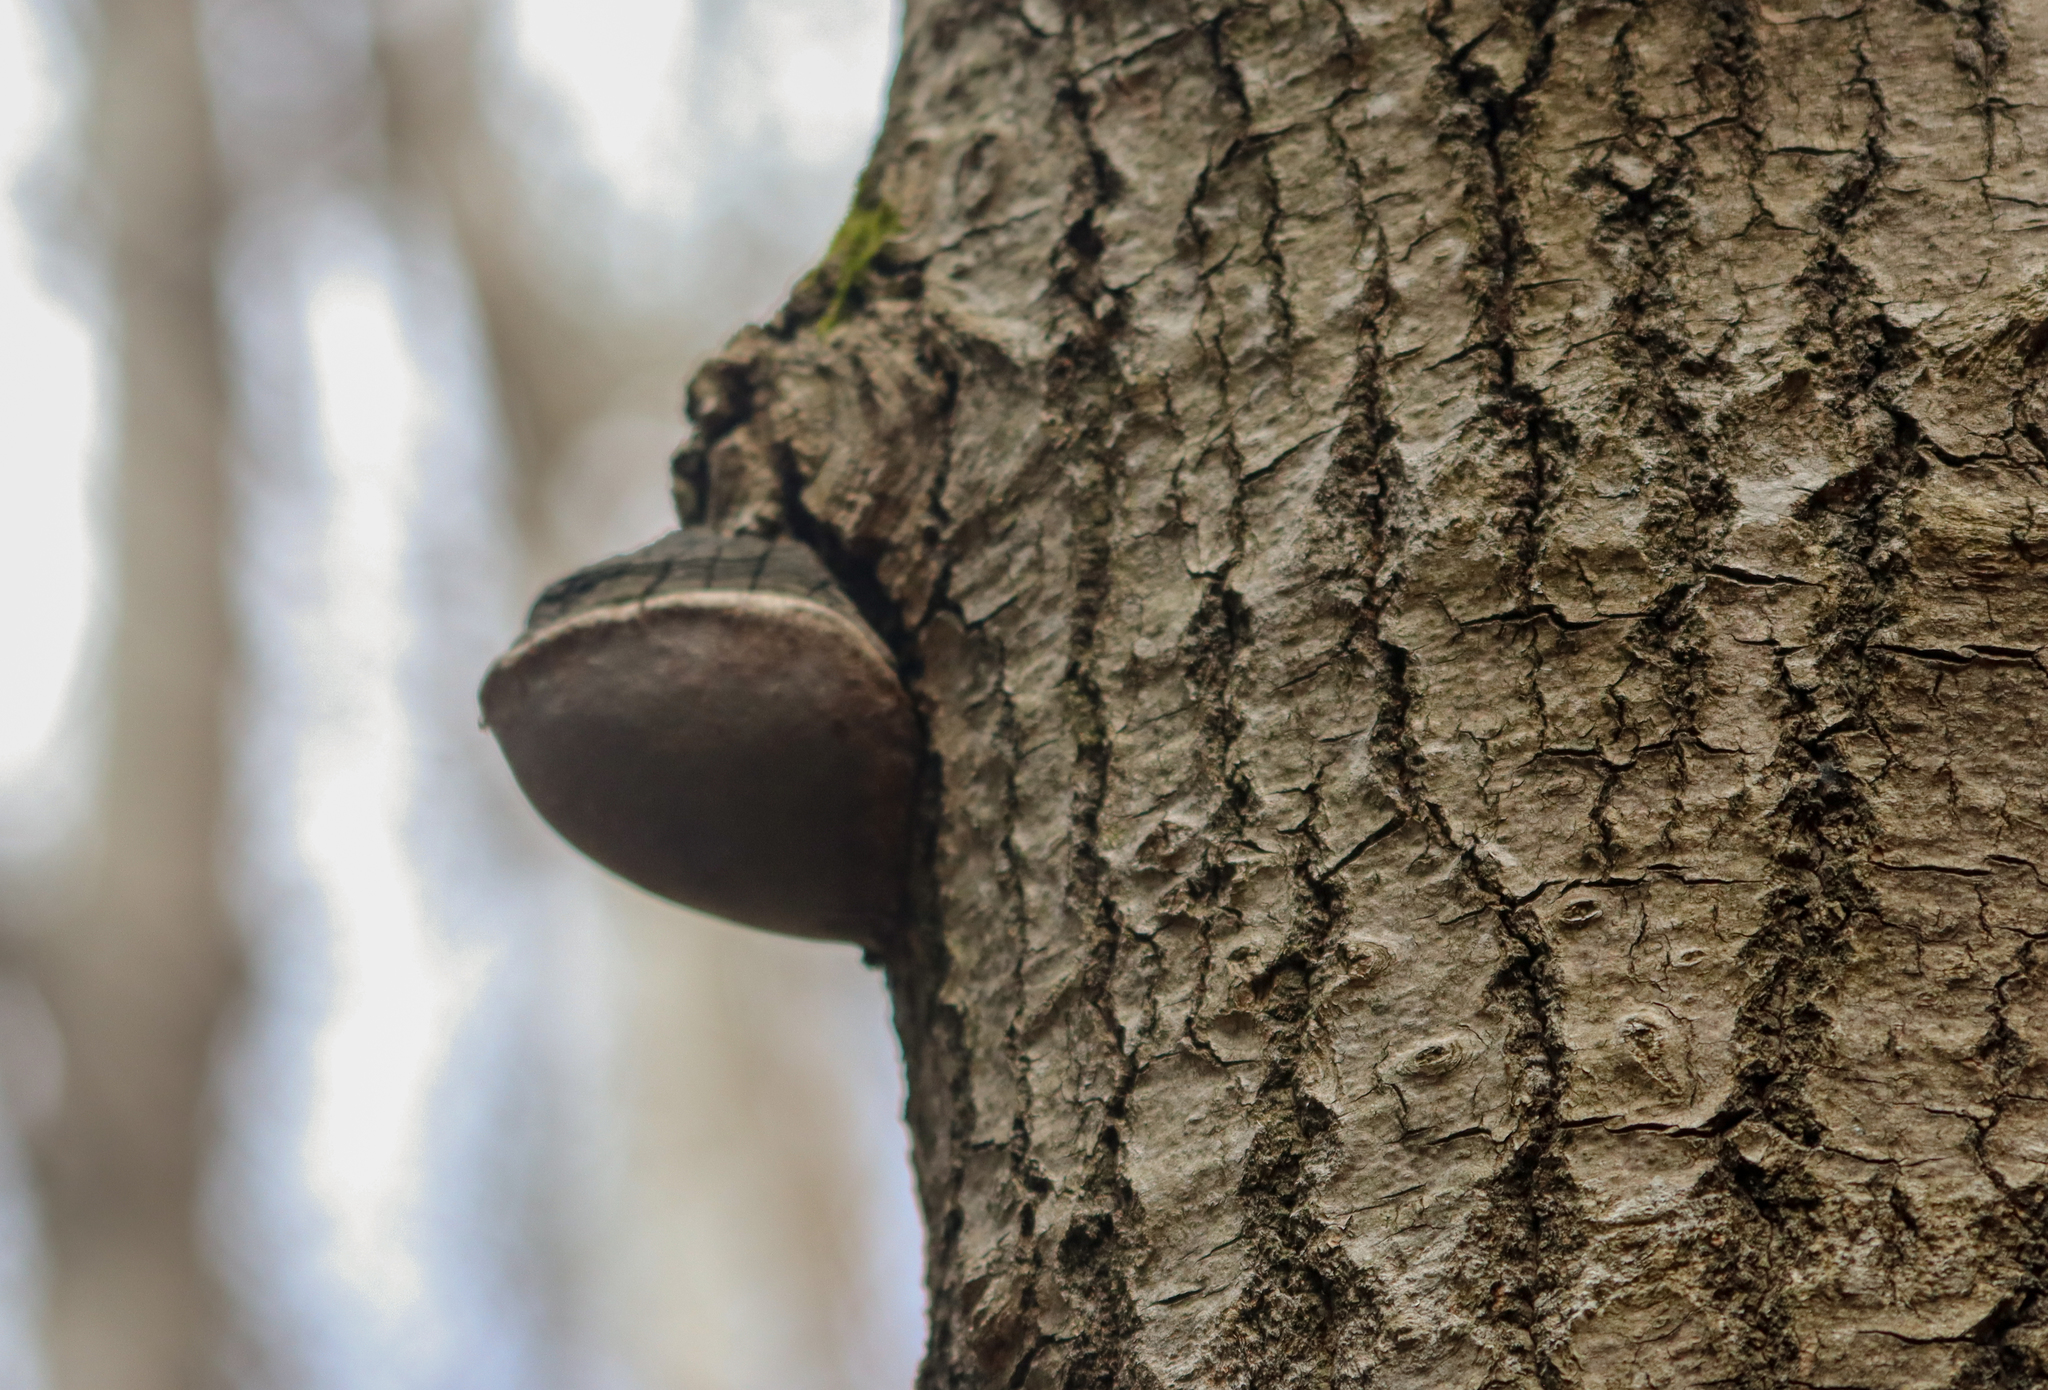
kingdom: Fungi
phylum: Basidiomycota
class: Agaricomycetes
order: Hymenochaetales
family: Hymenochaetaceae
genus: Phellinus
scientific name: Phellinus tremulae
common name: Aspen bracket
